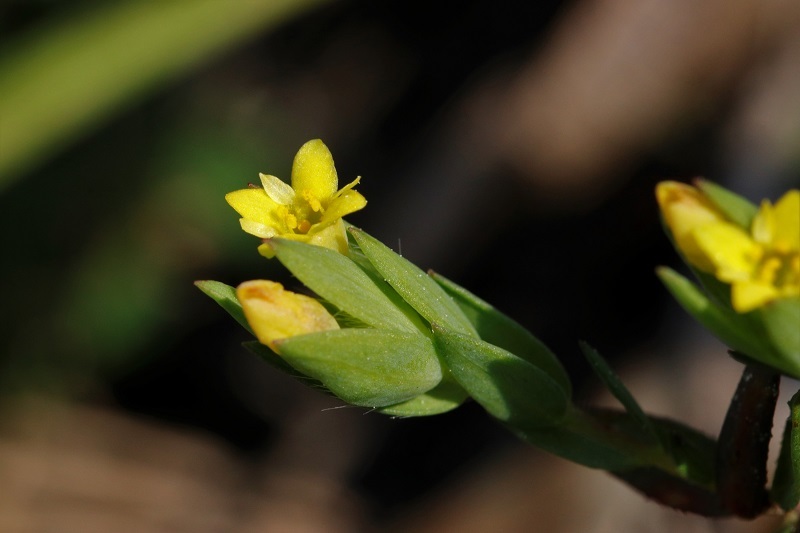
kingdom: Plantae
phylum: Tracheophyta
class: Magnoliopsida
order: Malvales
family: Thymelaeaceae
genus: Gnidia
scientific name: Gnidia juniperifolia
